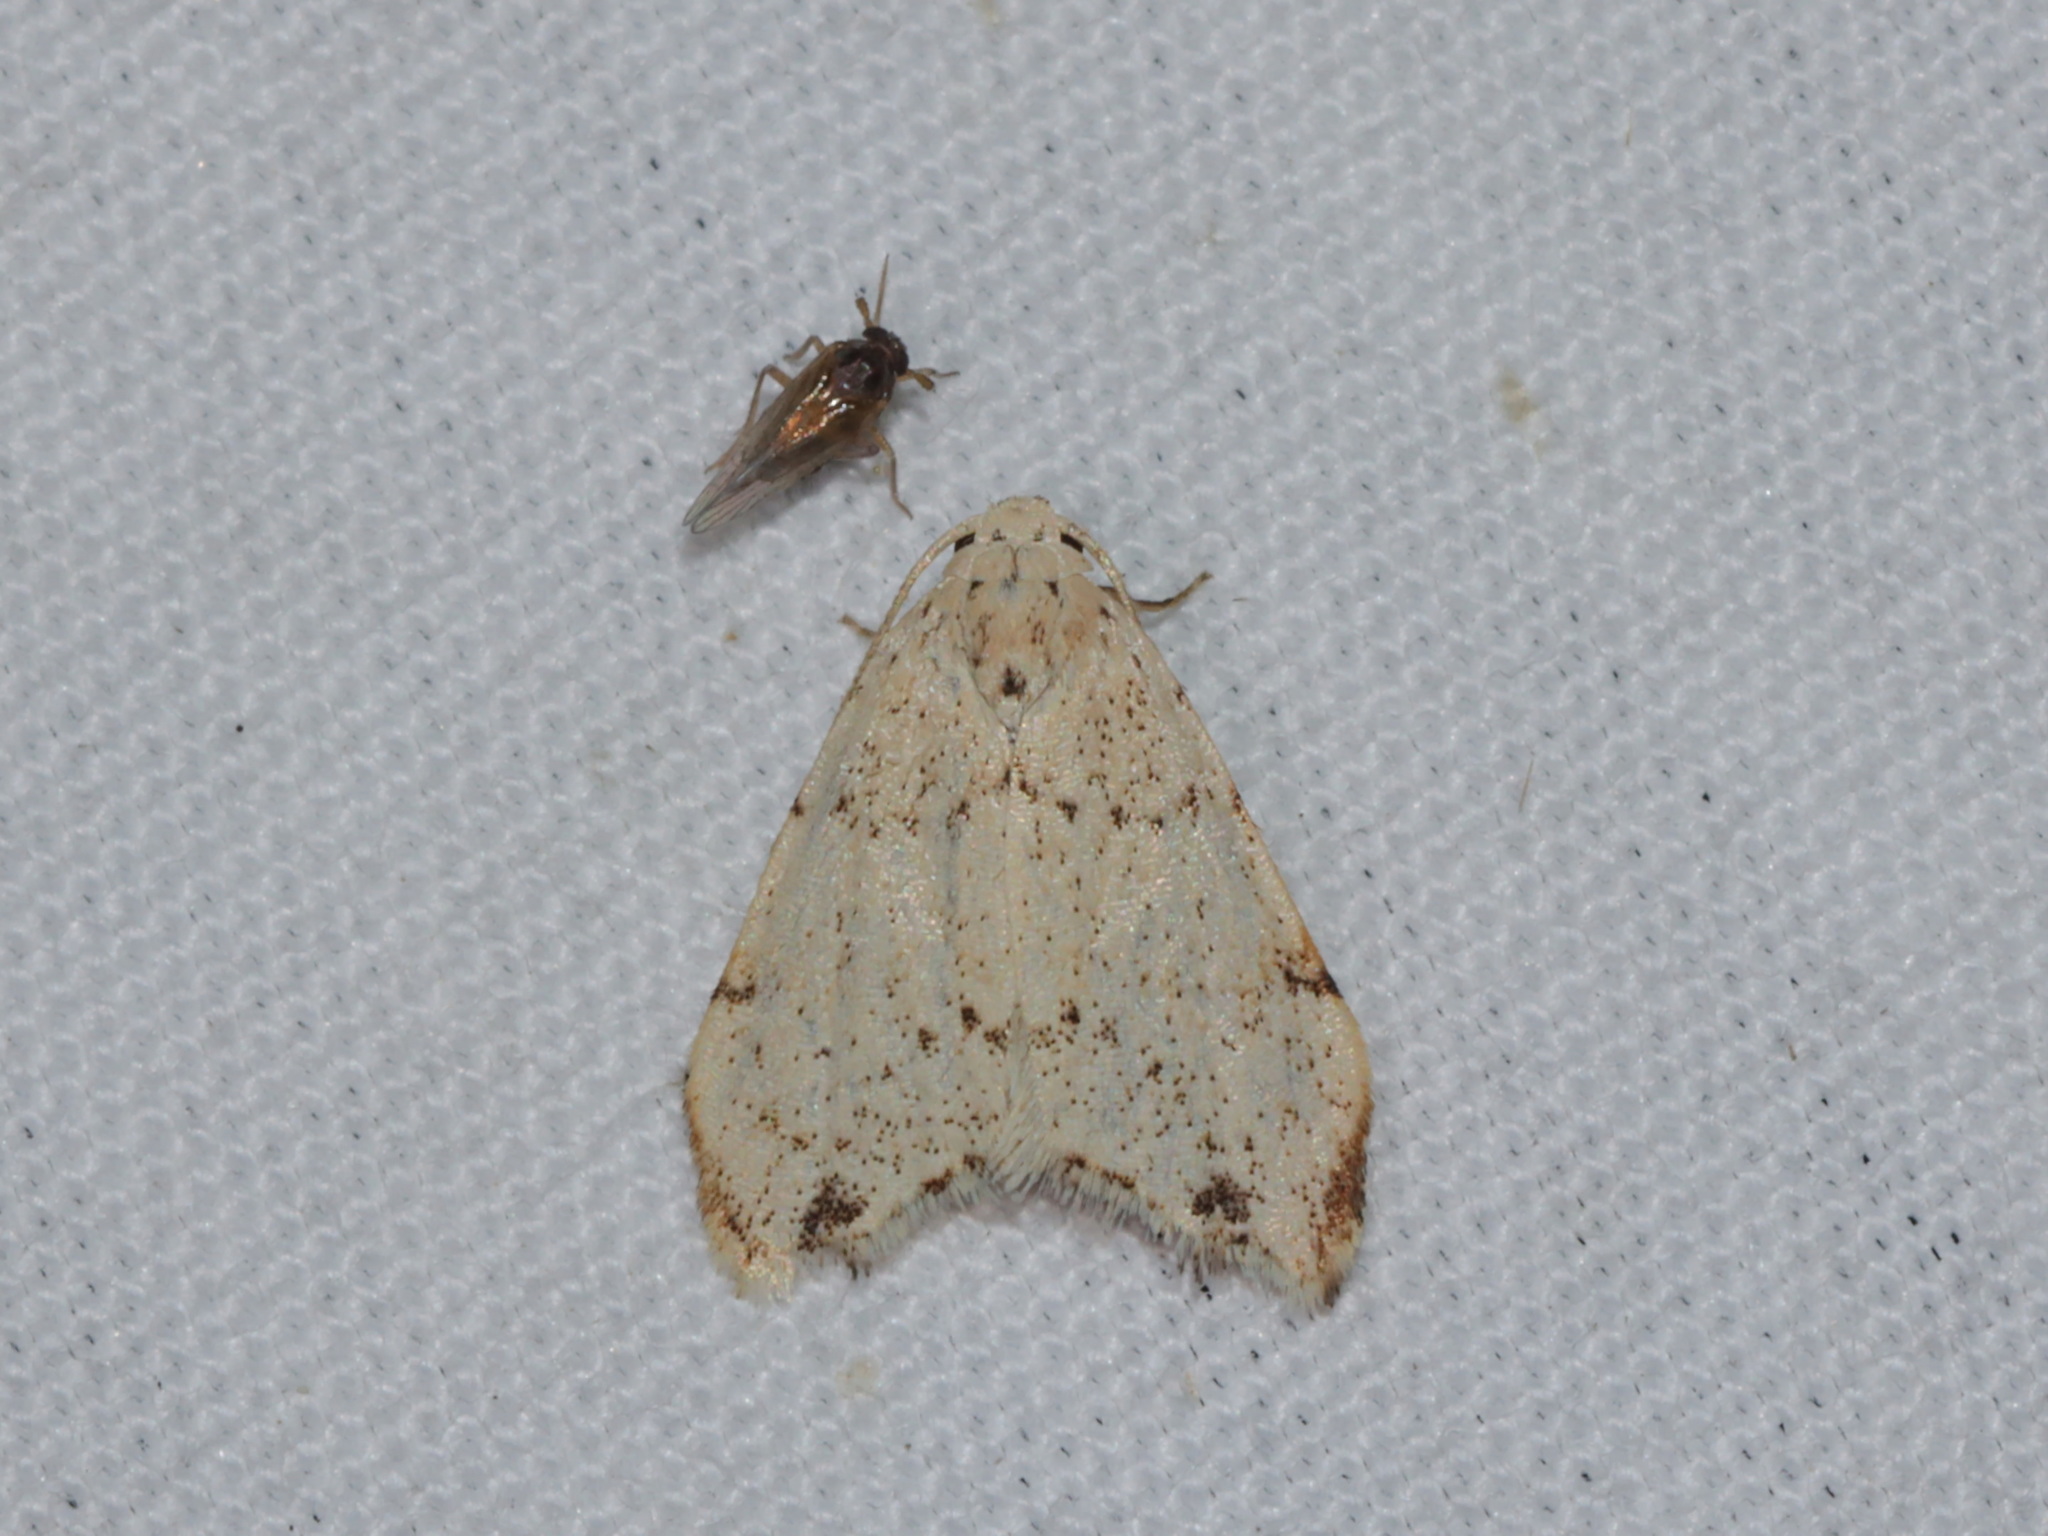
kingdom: Animalia
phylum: Arthropoda
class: Insecta
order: Lepidoptera
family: Erebidae
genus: Oxacme
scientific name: Oxacme cretacea
